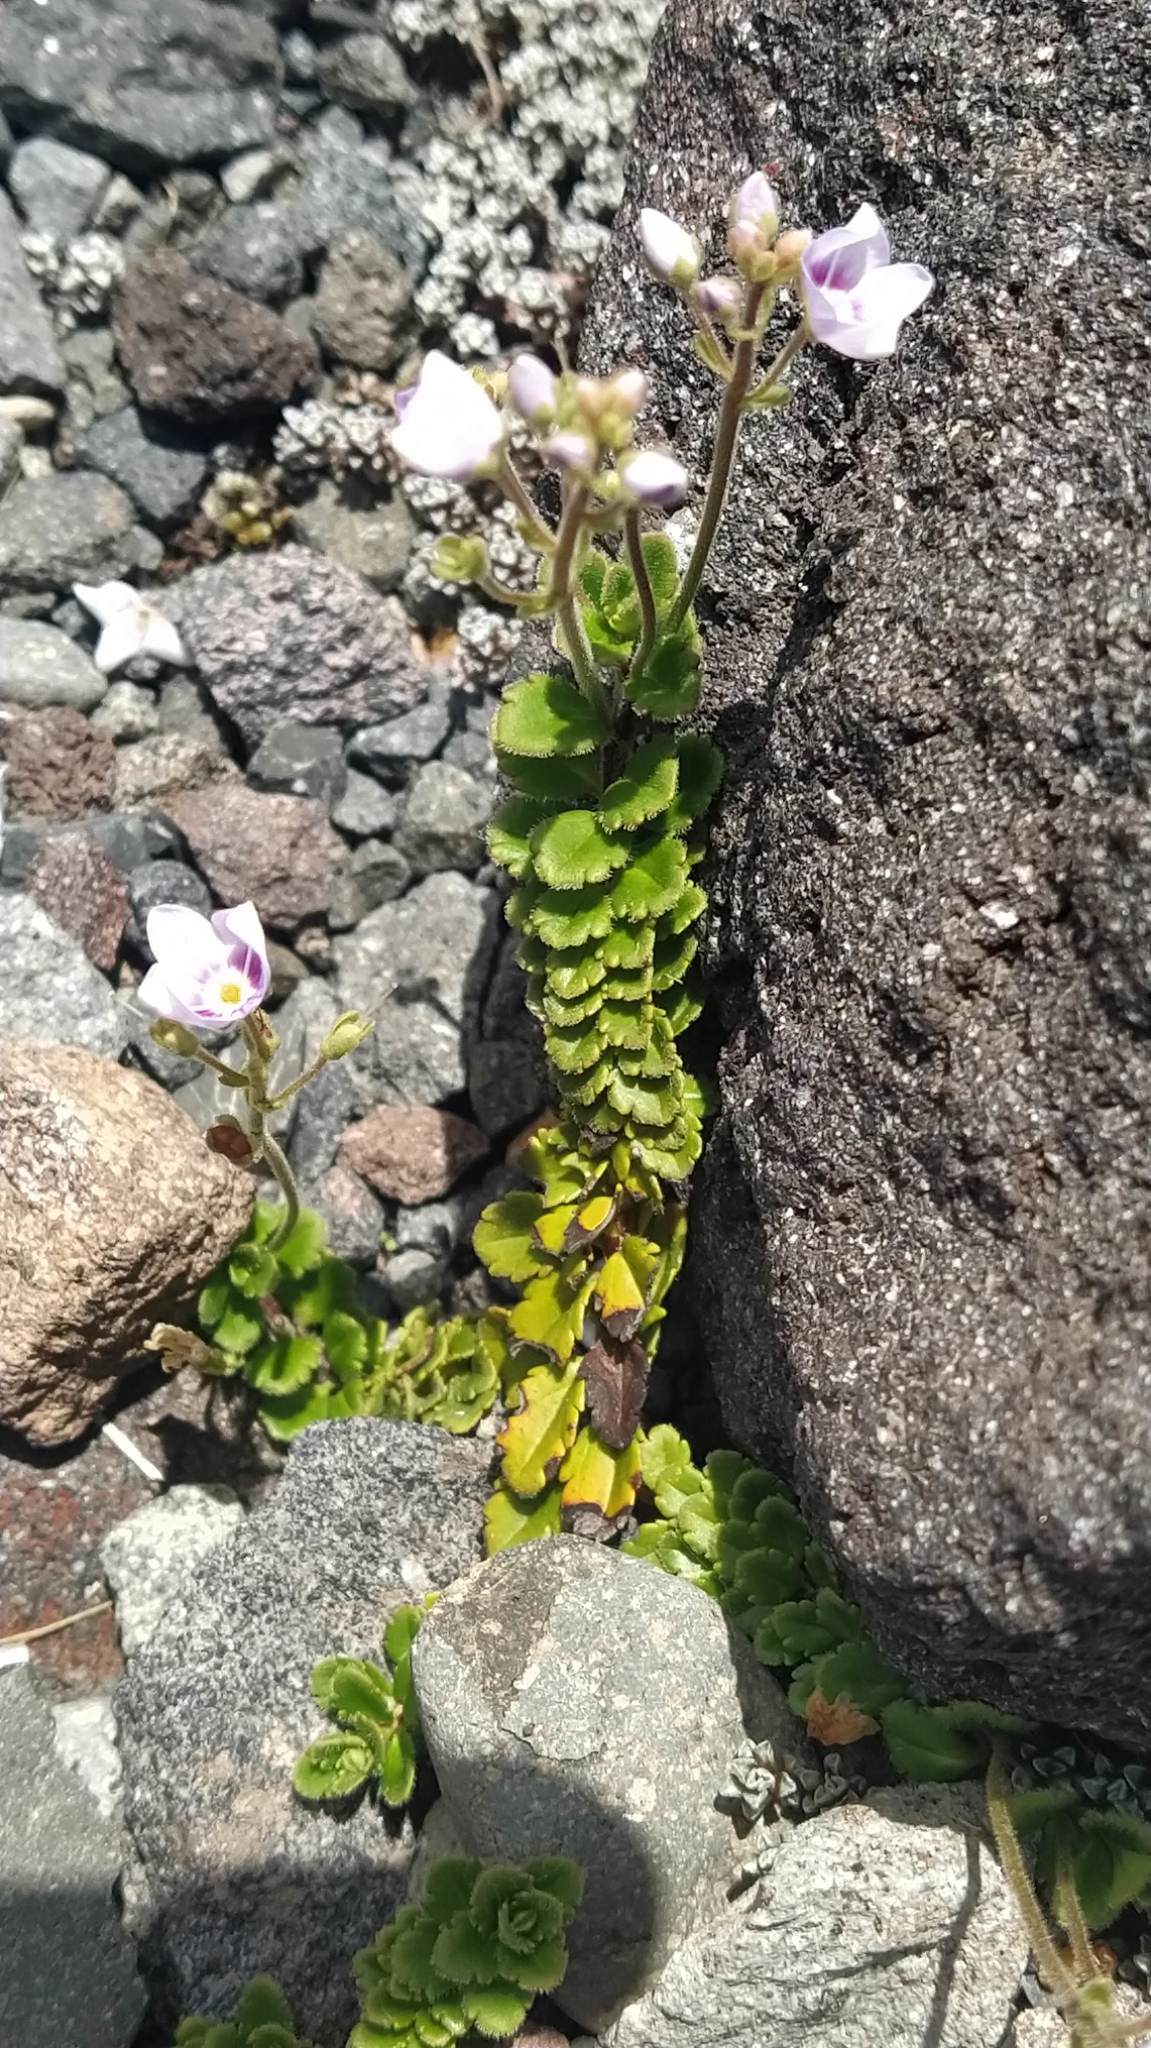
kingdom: Plantae
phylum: Tracheophyta
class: Magnoliopsida
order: Lamiales
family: Plantaginaceae
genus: Veronica
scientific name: Veronica hookeriana
